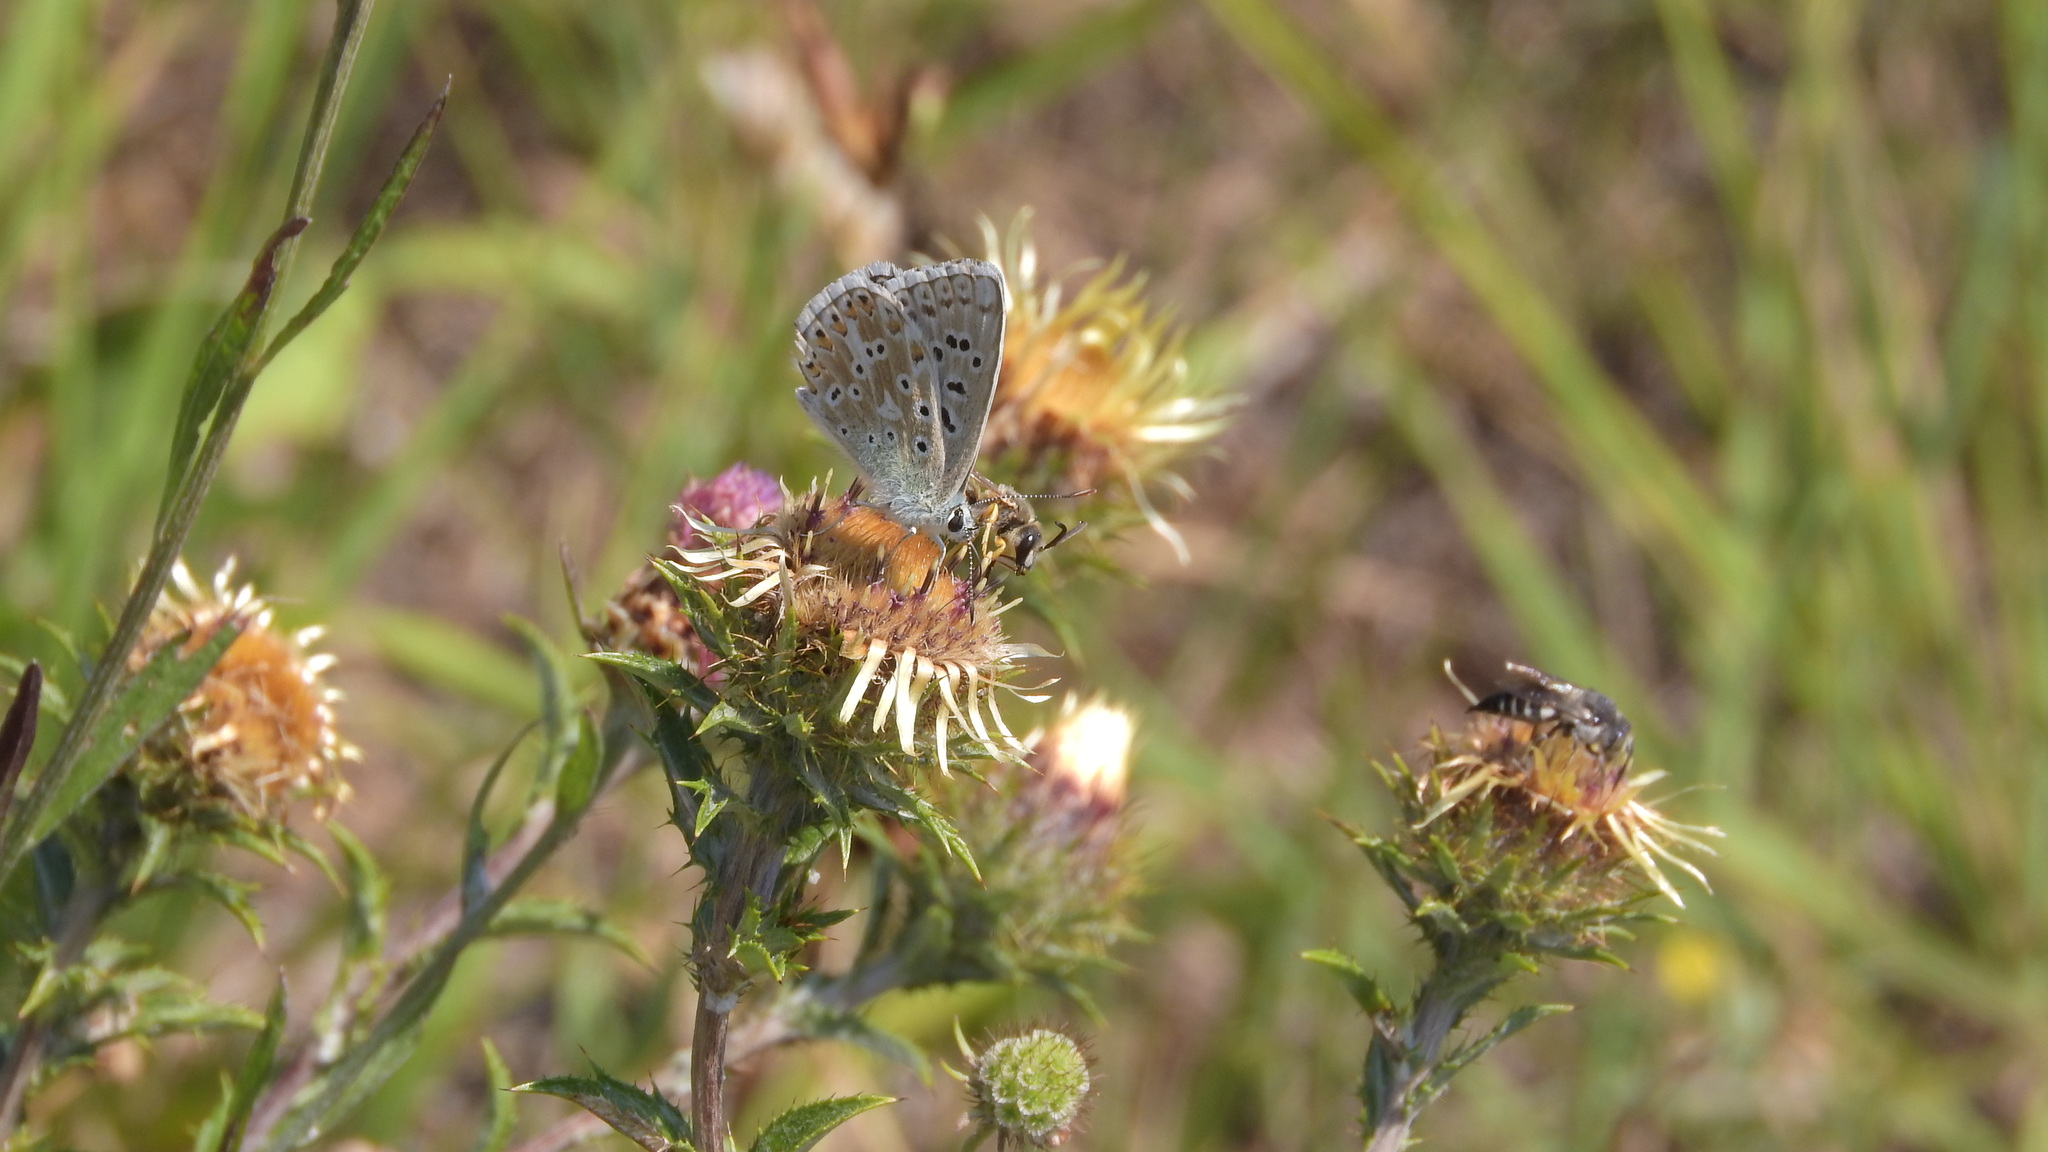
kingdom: Animalia
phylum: Arthropoda
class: Insecta
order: Lepidoptera
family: Lycaenidae
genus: Lysandra
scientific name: Lysandra coridon
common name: Chalkhill blue
